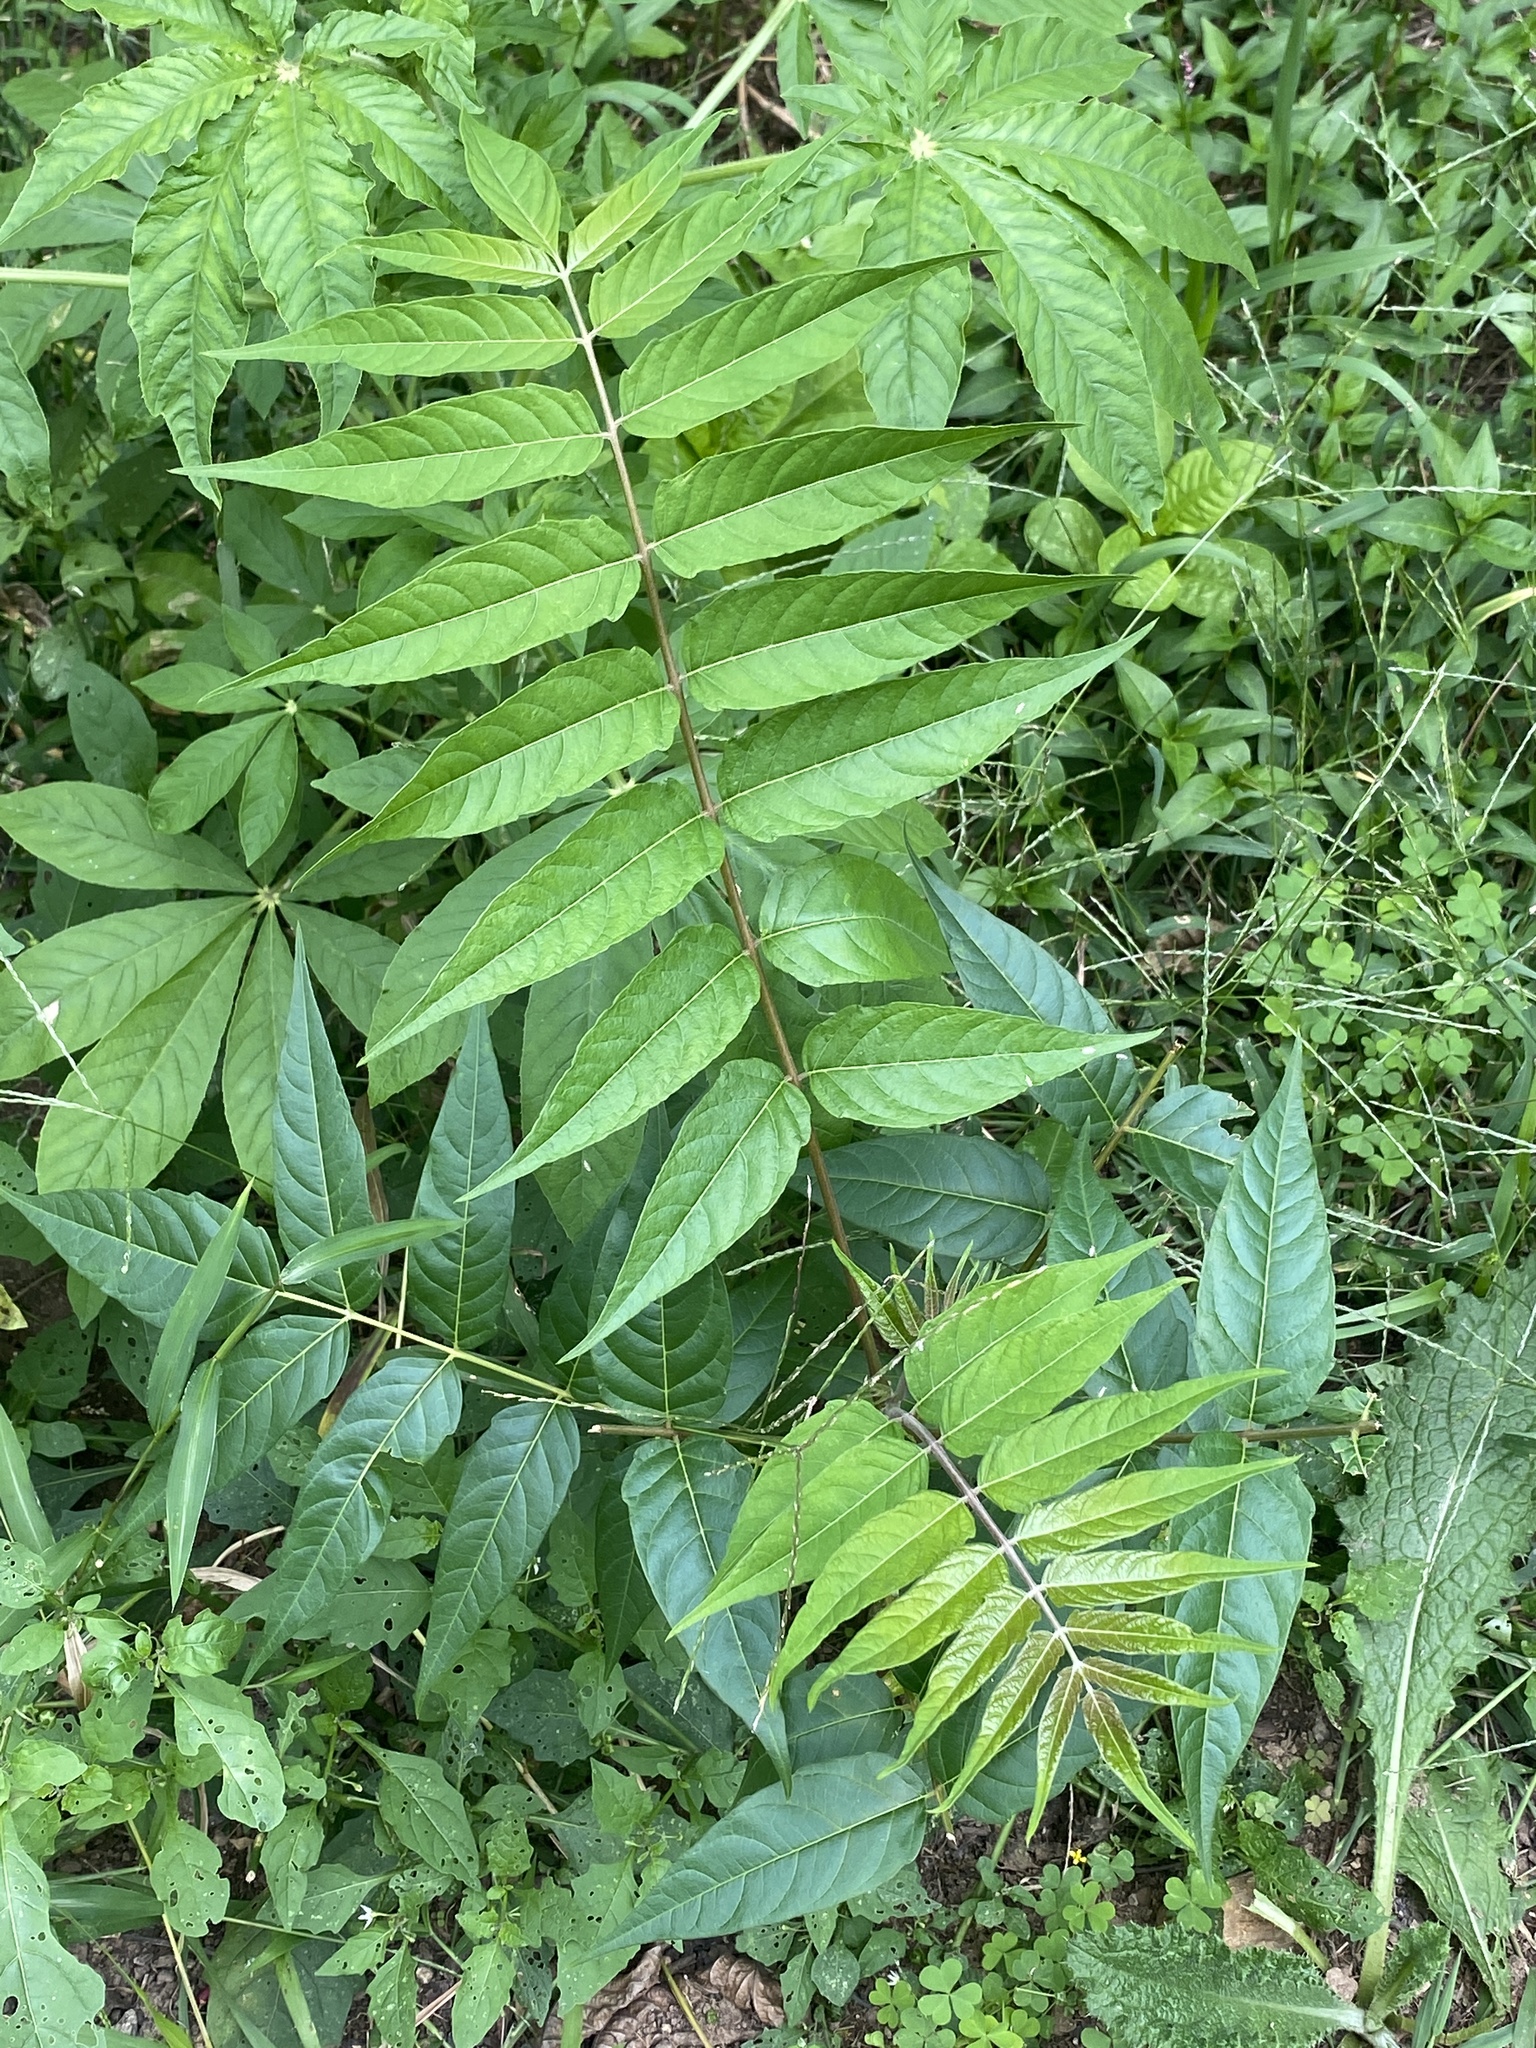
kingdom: Plantae
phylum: Tracheophyta
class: Magnoliopsida
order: Sapindales
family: Simaroubaceae
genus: Ailanthus
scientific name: Ailanthus altissima
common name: Tree-of-heaven
